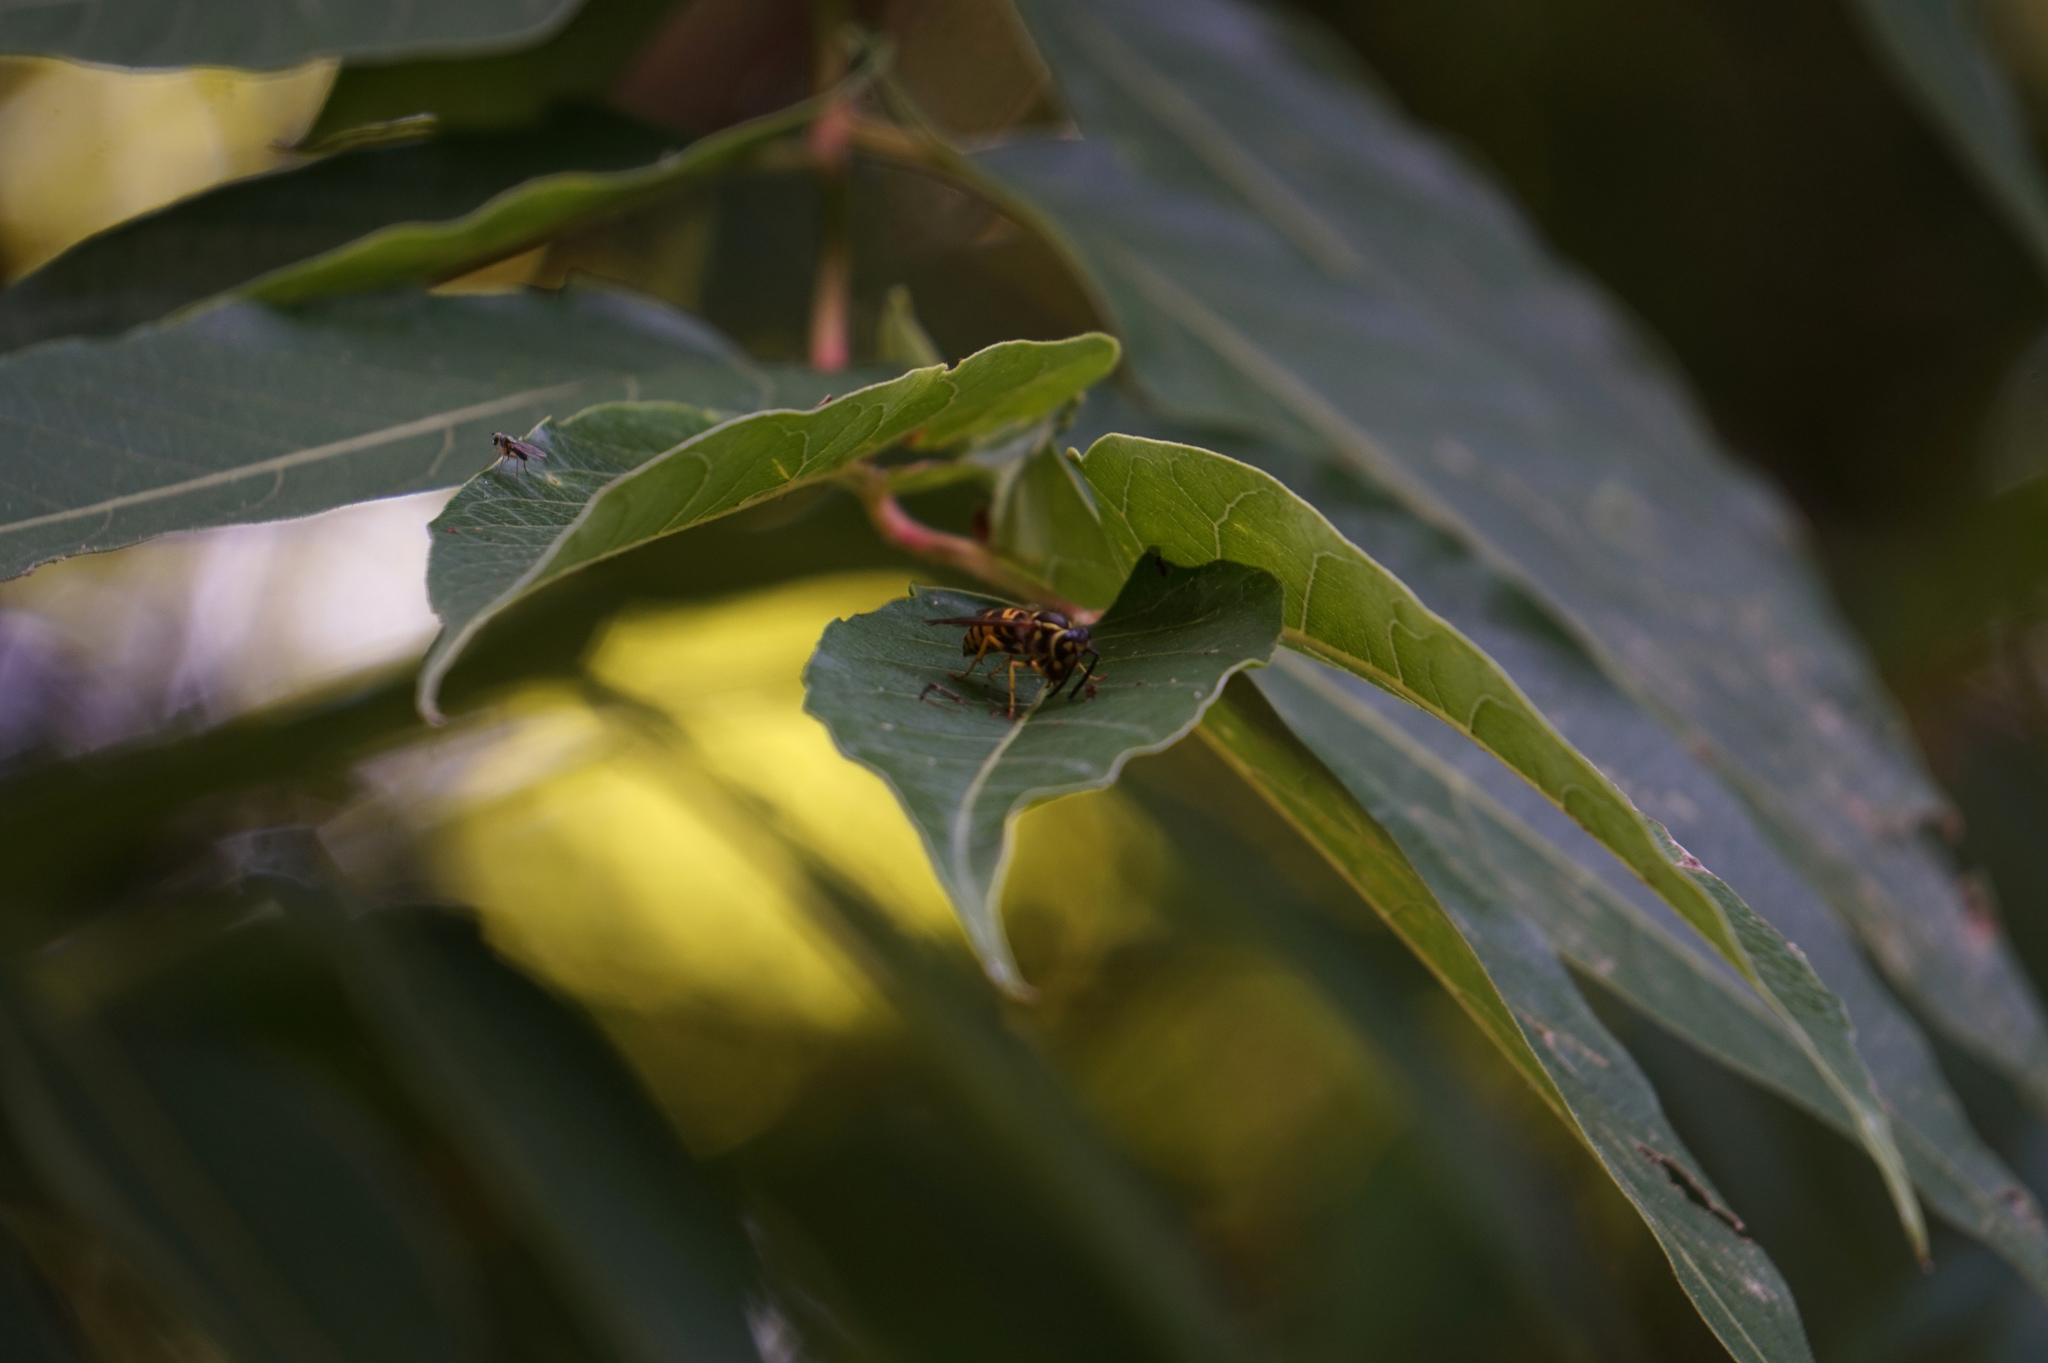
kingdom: Animalia
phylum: Arthropoda
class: Insecta
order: Hymenoptera
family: Vespidae
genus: Vespula
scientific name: Vespula maculifrons
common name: Eastern yellowjacket
